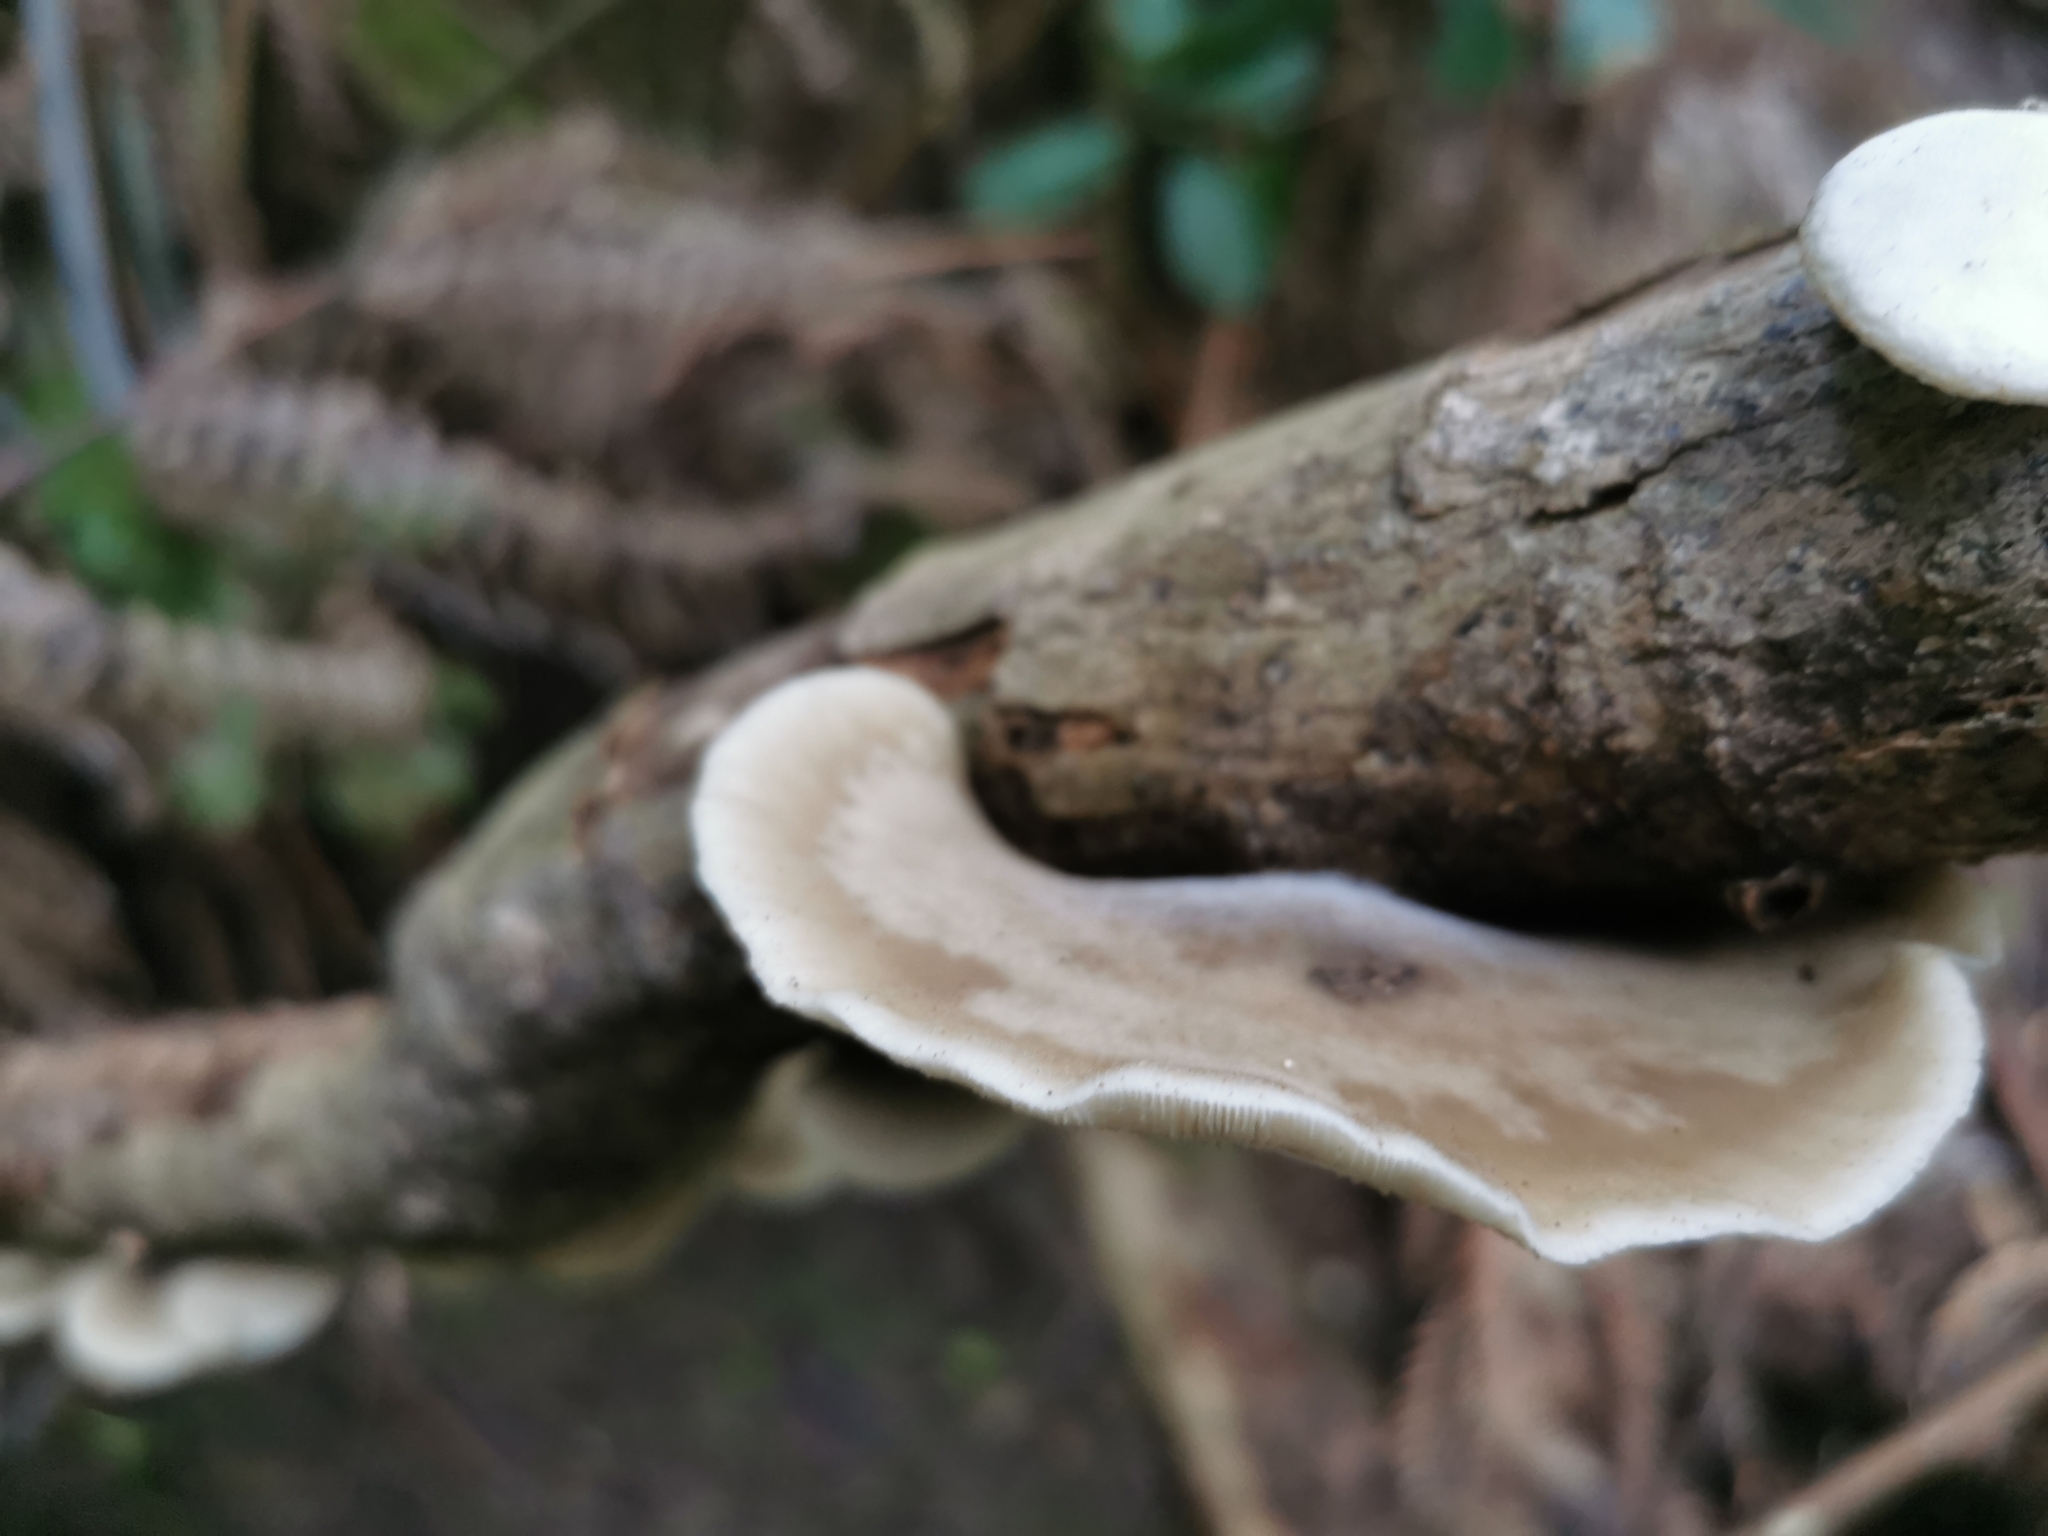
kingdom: Fungi
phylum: Basidiomycota
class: Agaricomycetes
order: Agaricales
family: Tricholomataceae
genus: Conchomyces
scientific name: Conchomyces bursiformis
